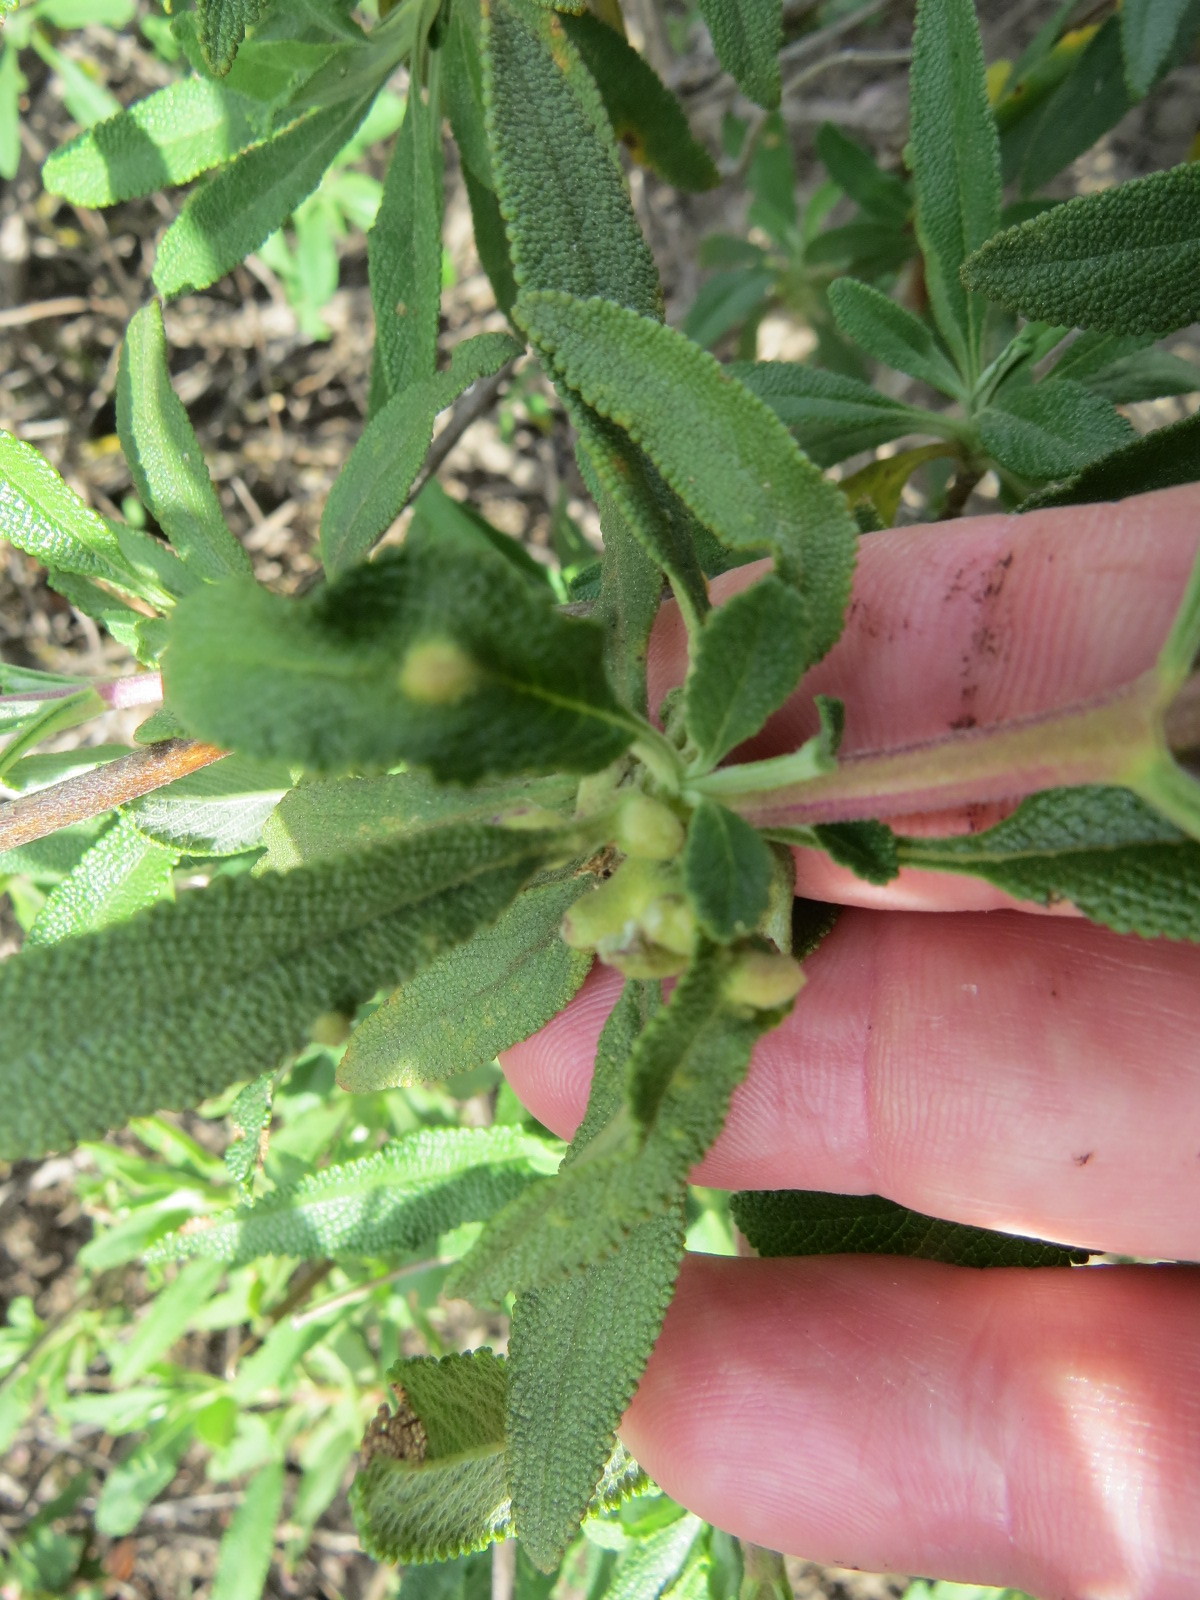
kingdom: Animalia
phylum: Arthropoda
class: Insecta
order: Diptera
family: Cecidomyiidae
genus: Rhopalomyia
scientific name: Rhopalomyia audibertiae
